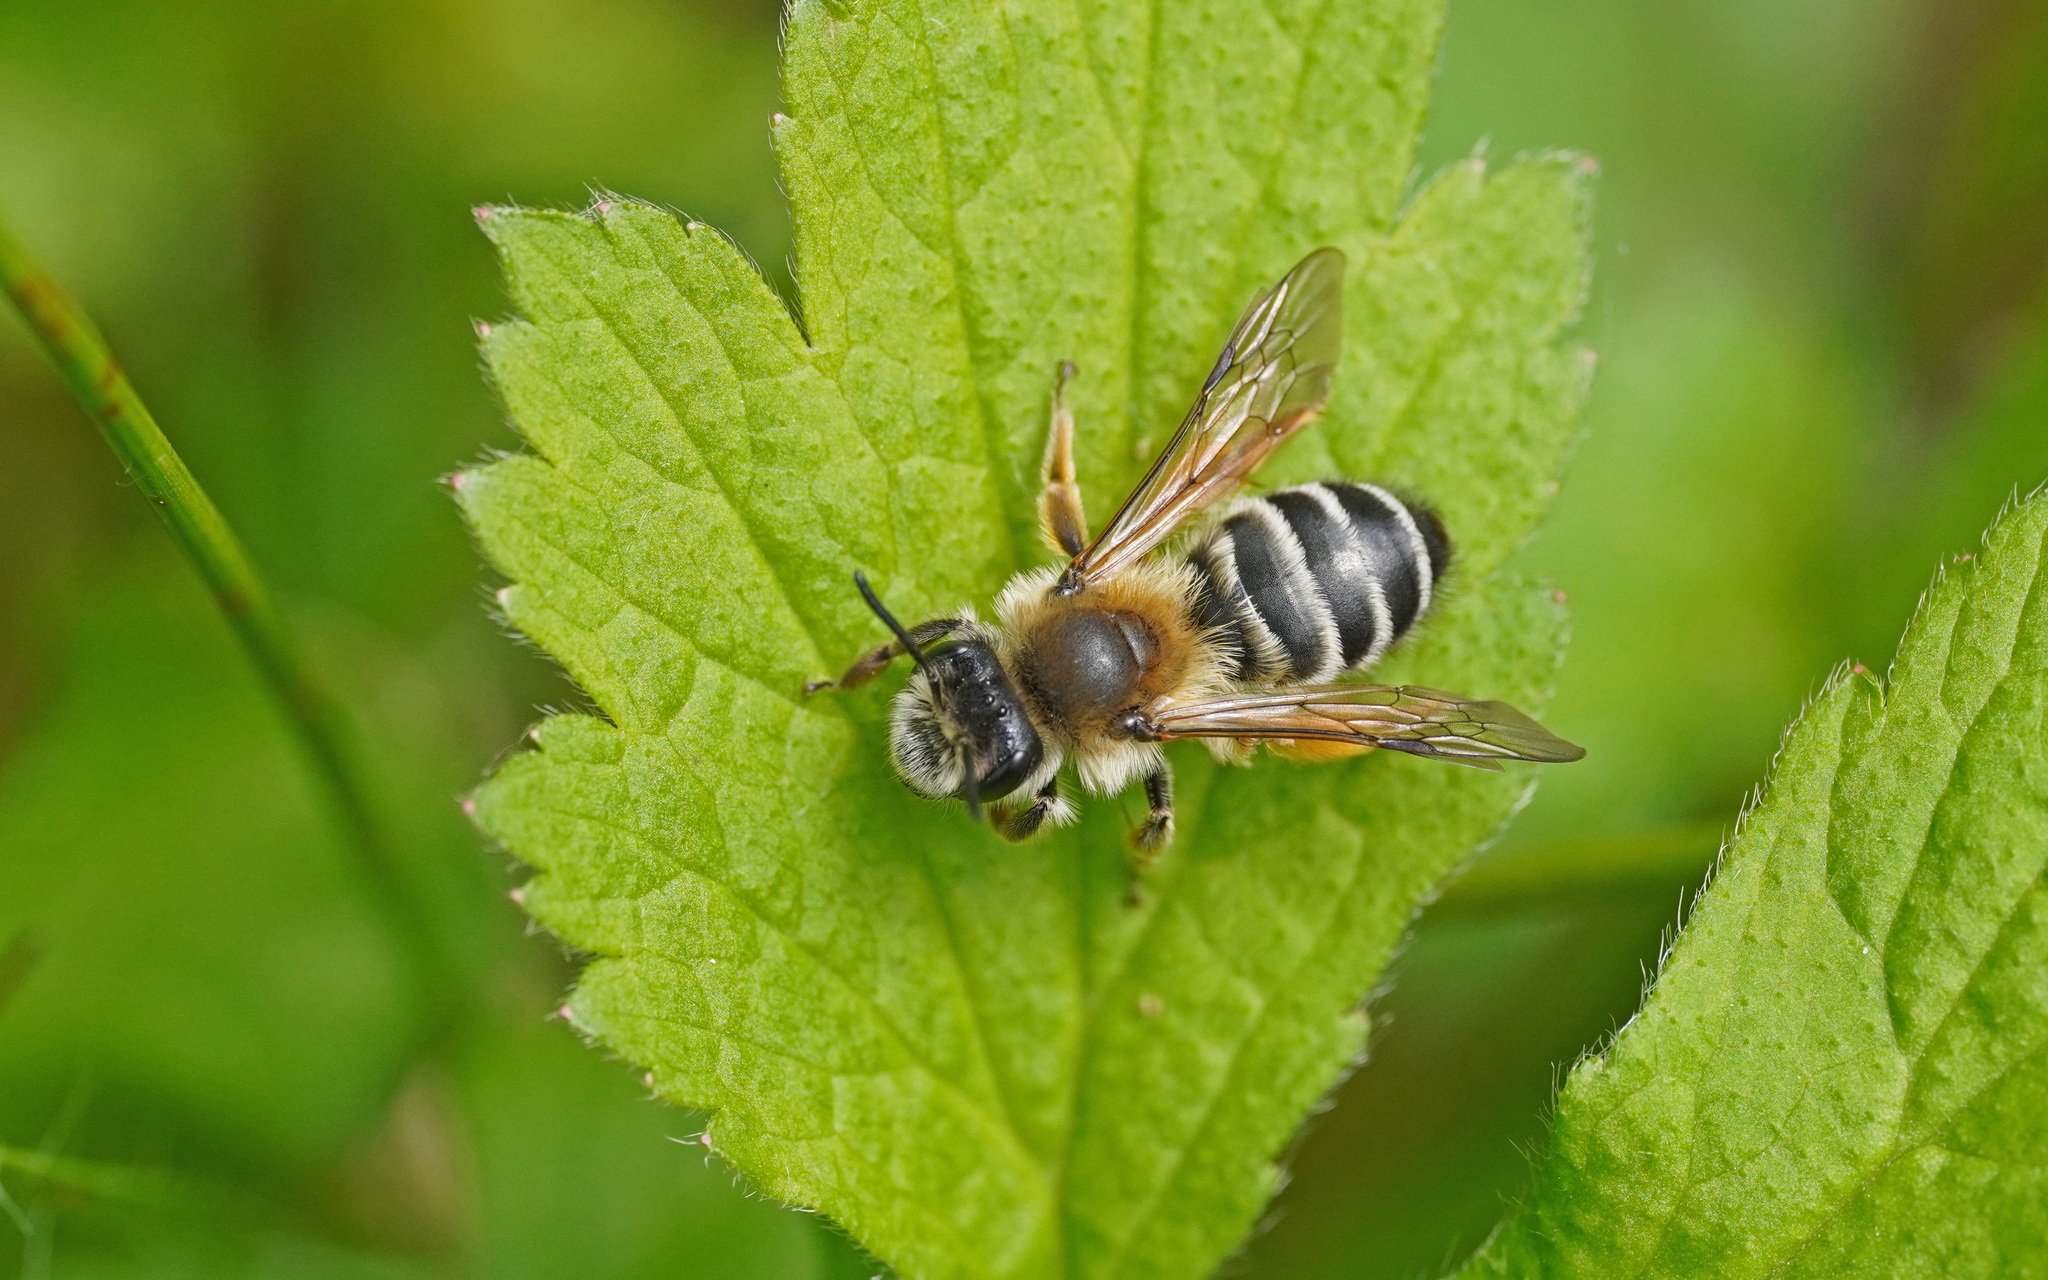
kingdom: Animalia
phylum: Arthropoda
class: Insecta
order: Hymenoptera
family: Andrenidae
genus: Andrena
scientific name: Andrena gravida
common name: White-bellied mining bee
